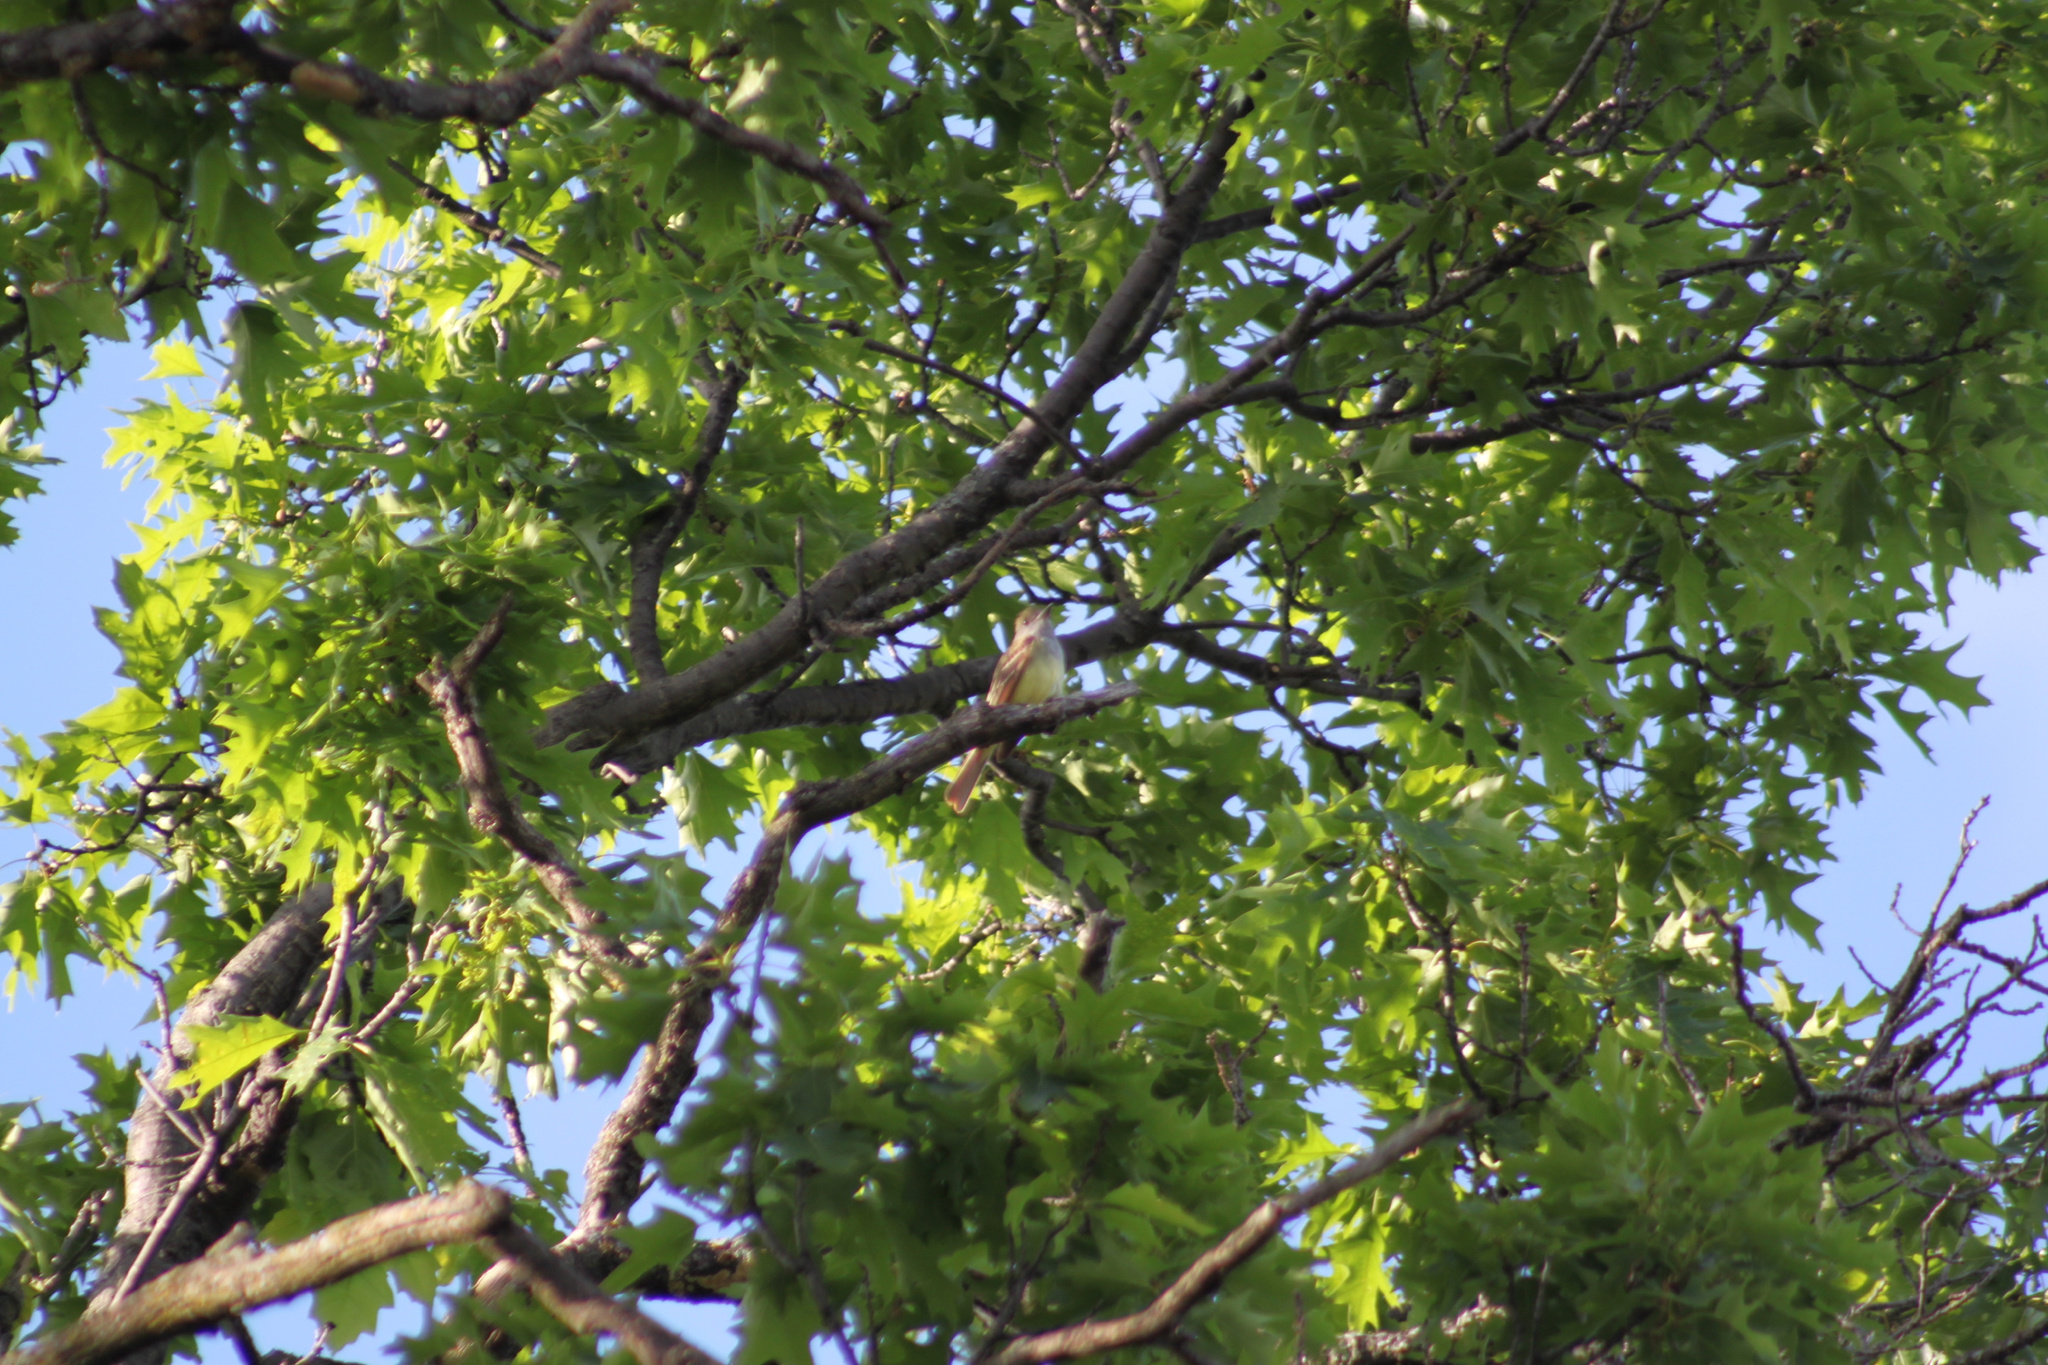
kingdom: Animalia
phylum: Chordata
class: Aves
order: Passeriformes
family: Tyrannidae
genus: Myiarchus
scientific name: Myiarchus crinitus
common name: Great crested flycatcher
